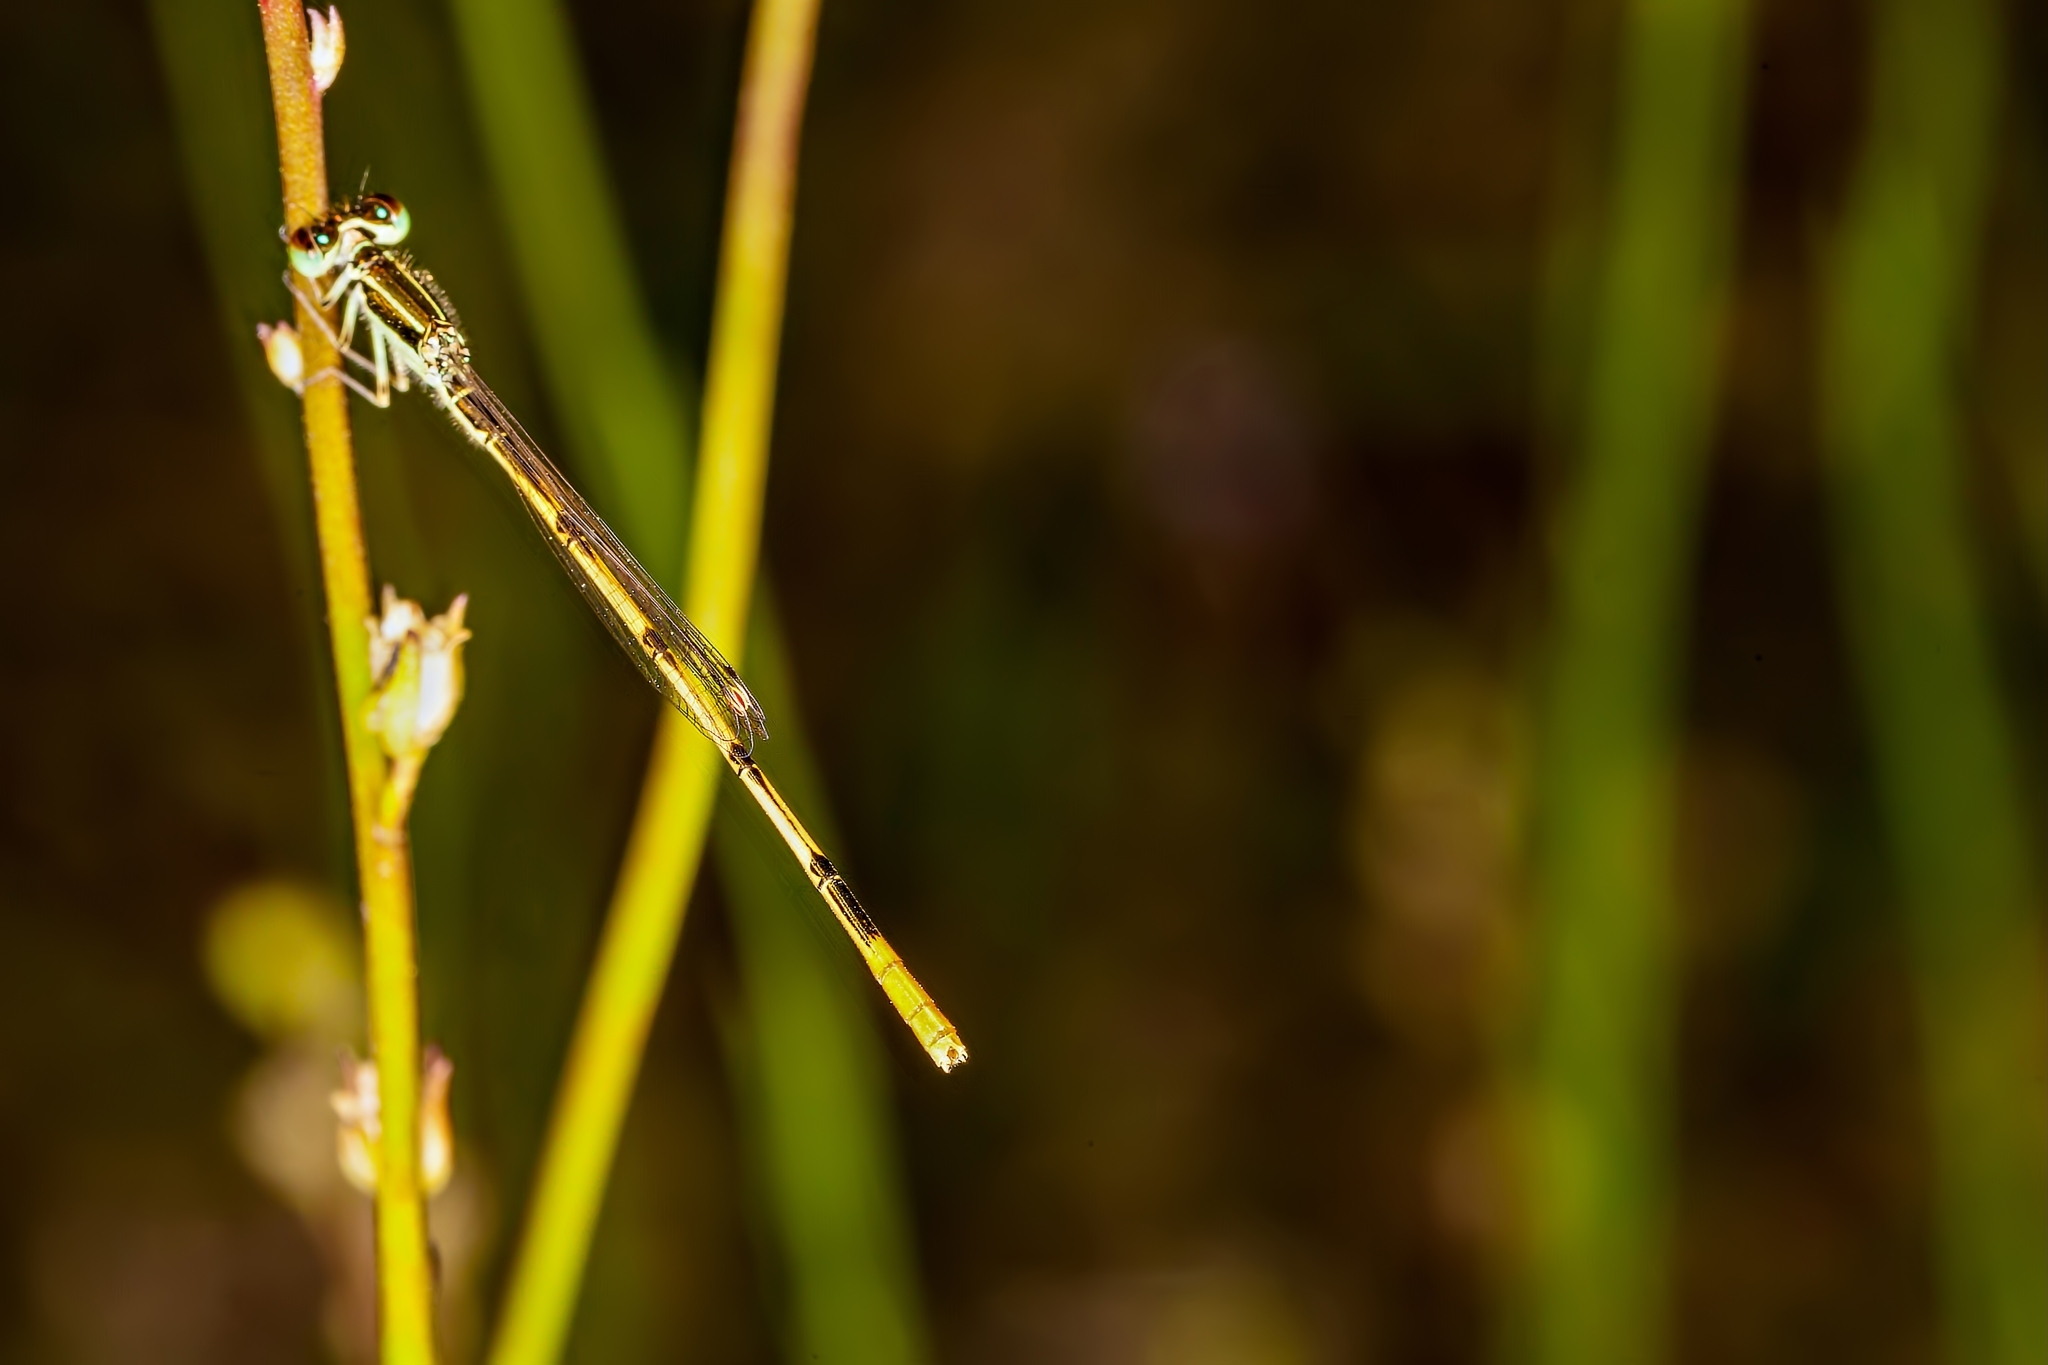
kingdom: Animalia
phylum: Arthropoda
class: Insecta
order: Odonata
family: Coenagrionidae
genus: Ischnura
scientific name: Ischnura hastata
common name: Citrine forktail
